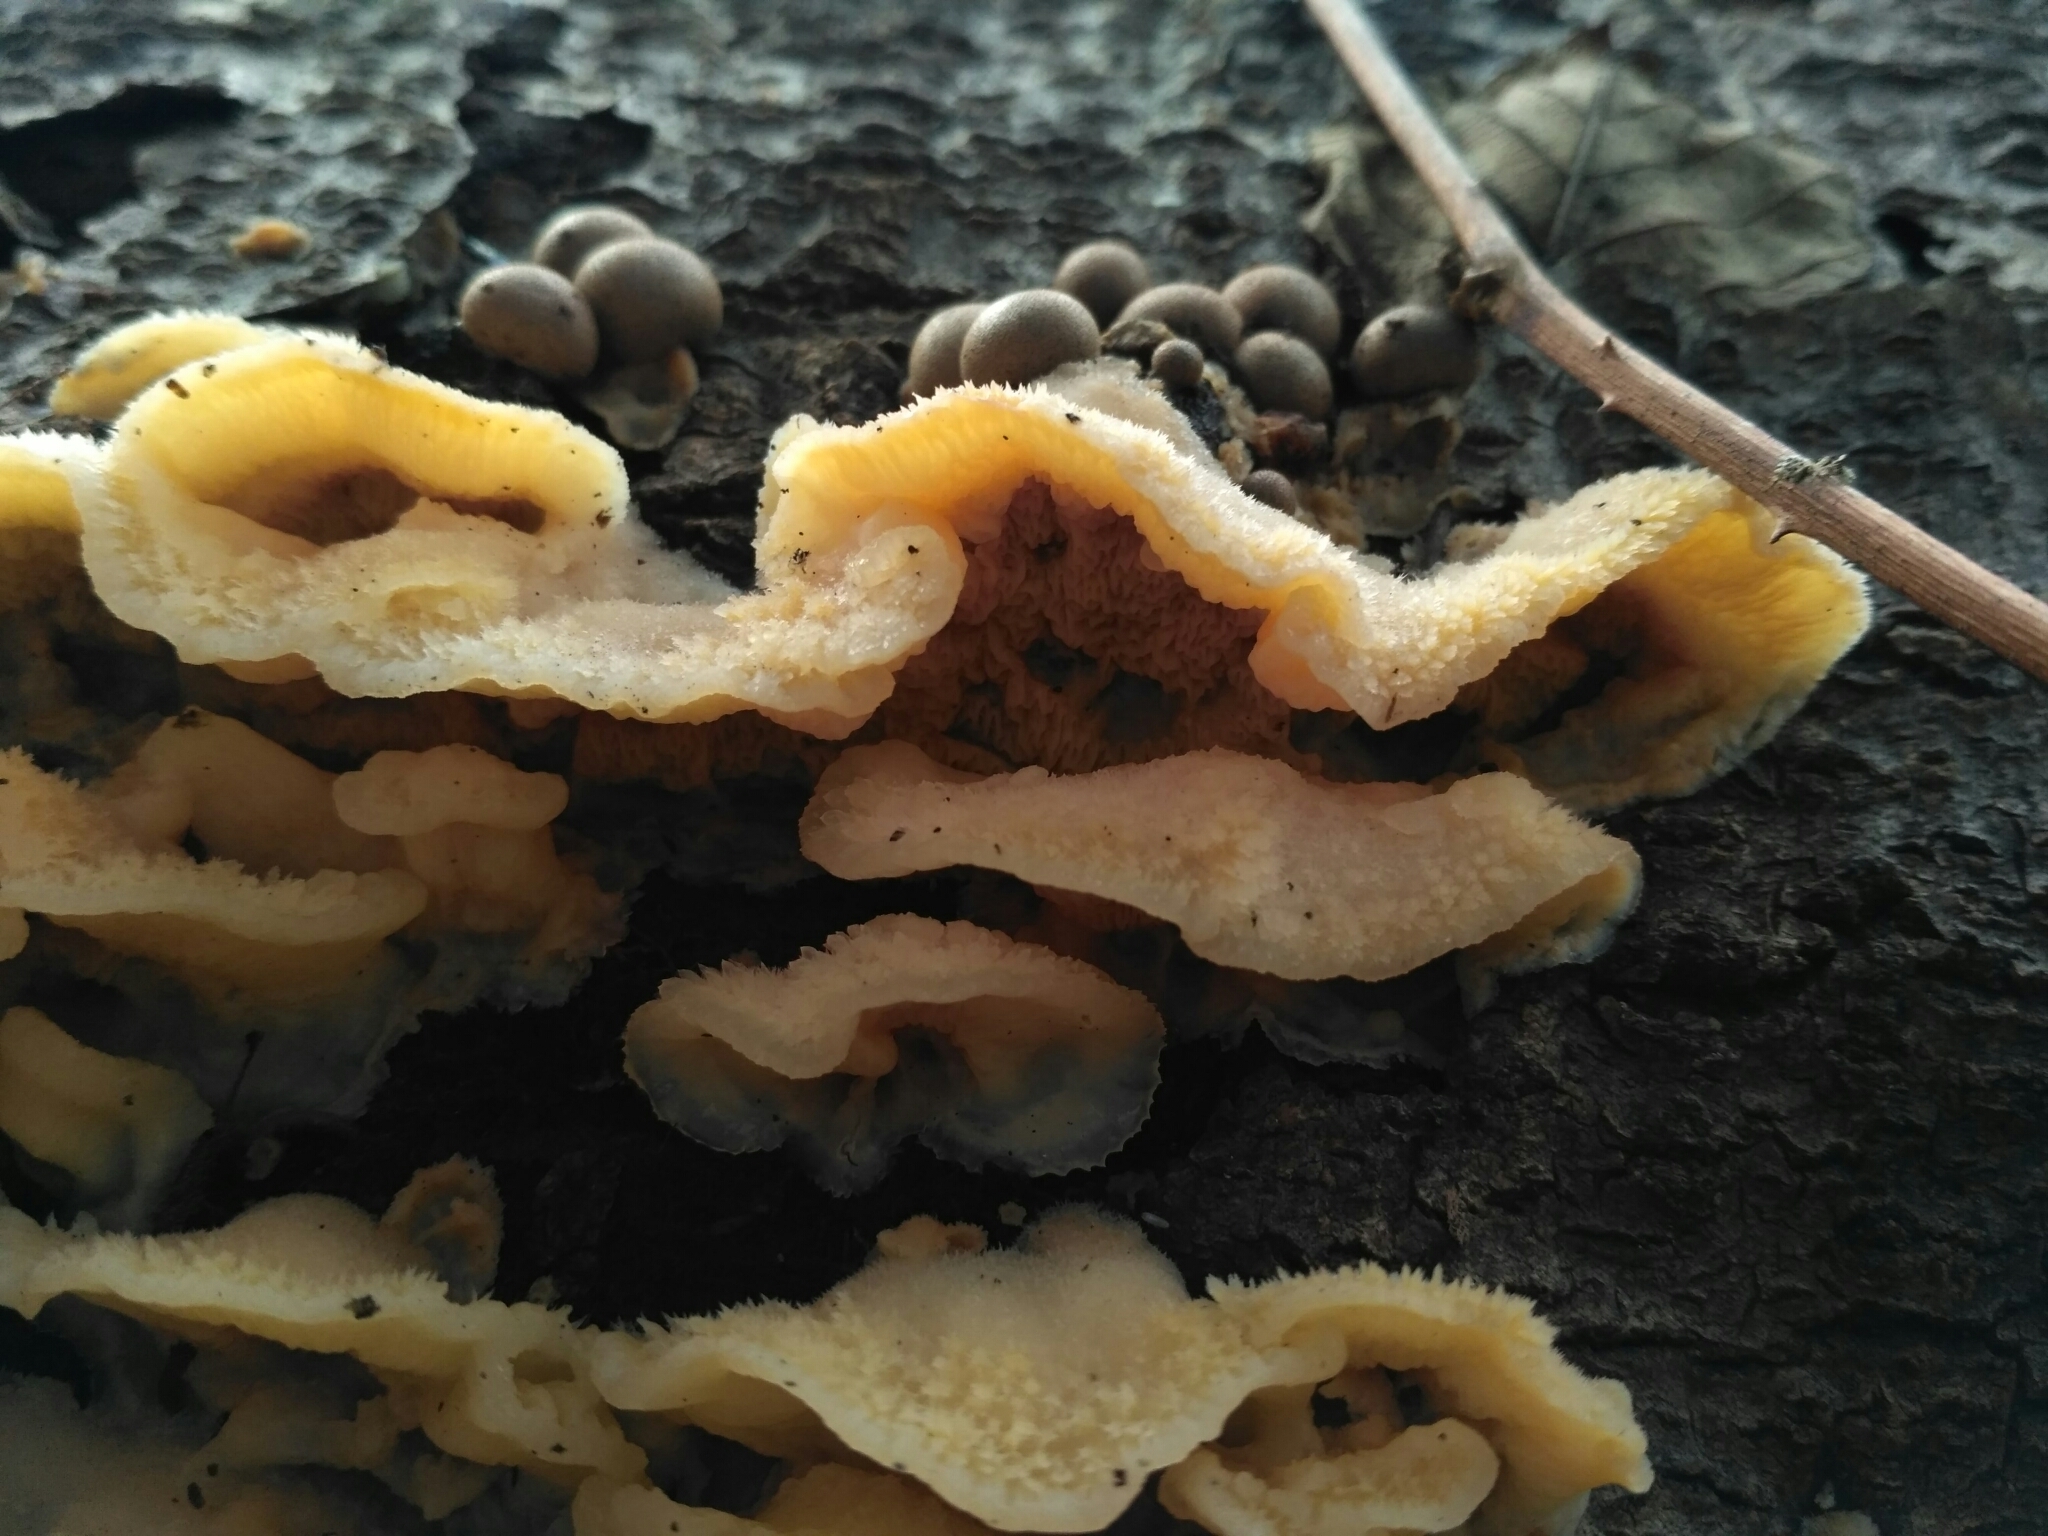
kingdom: Protozoa
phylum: Mycetozoa
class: Myxomycetes
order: Cribrariales
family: Tubiferaceae
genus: Lycogala
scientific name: Lycogala epidendrum
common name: Wolf's milk
